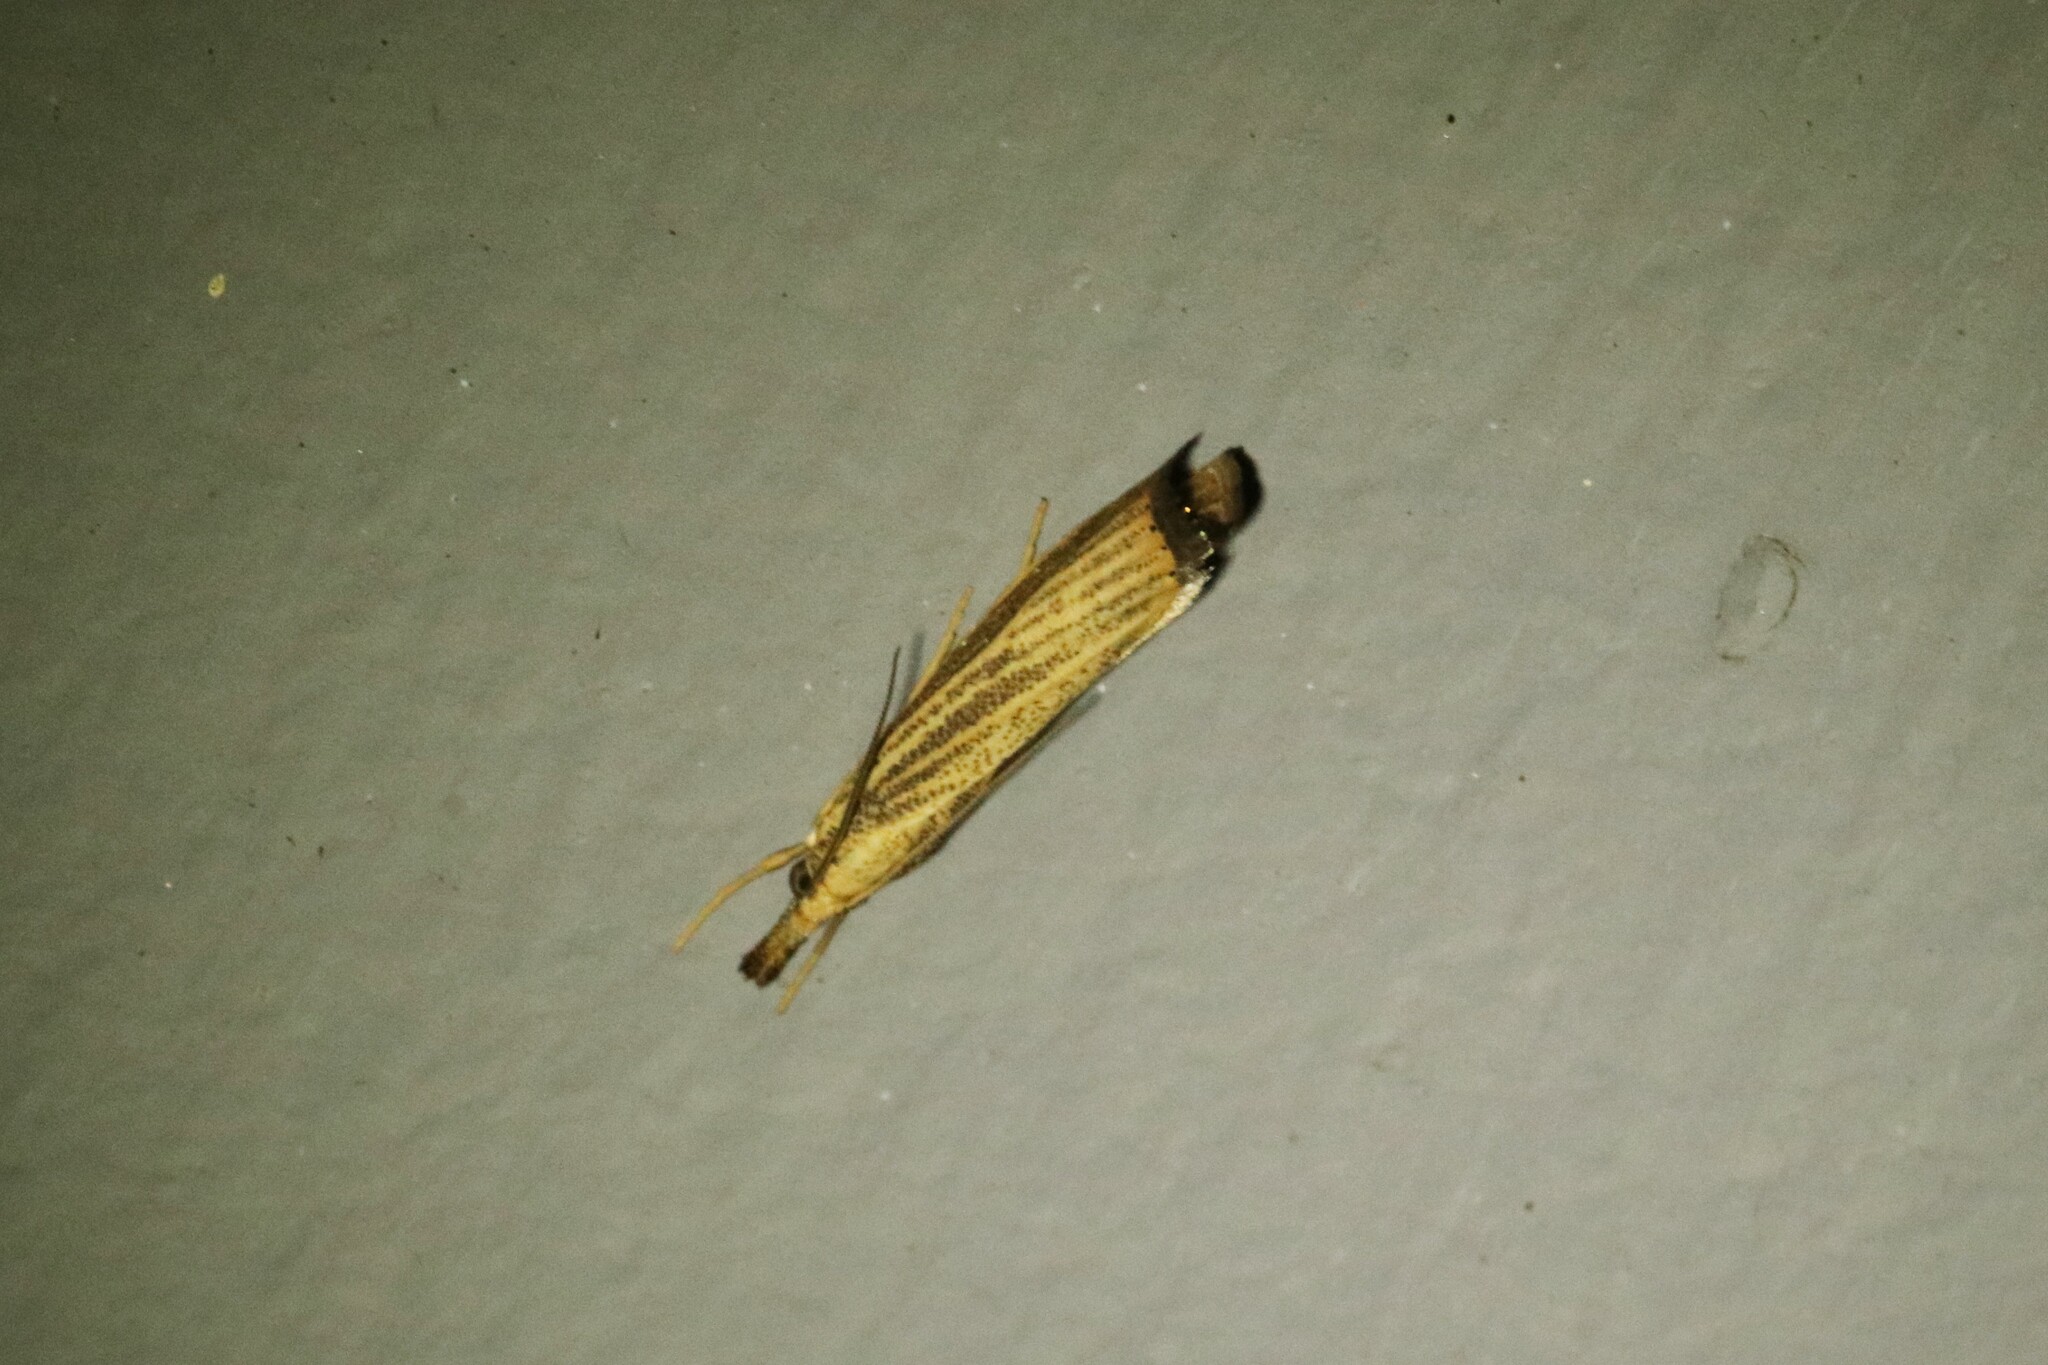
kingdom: Animalia
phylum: Arthropoda
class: Insecta
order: Lepidoptera
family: Crambidae
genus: Agriphila
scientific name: Agriphila vulgivagellus
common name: Vagabond crambus moth
